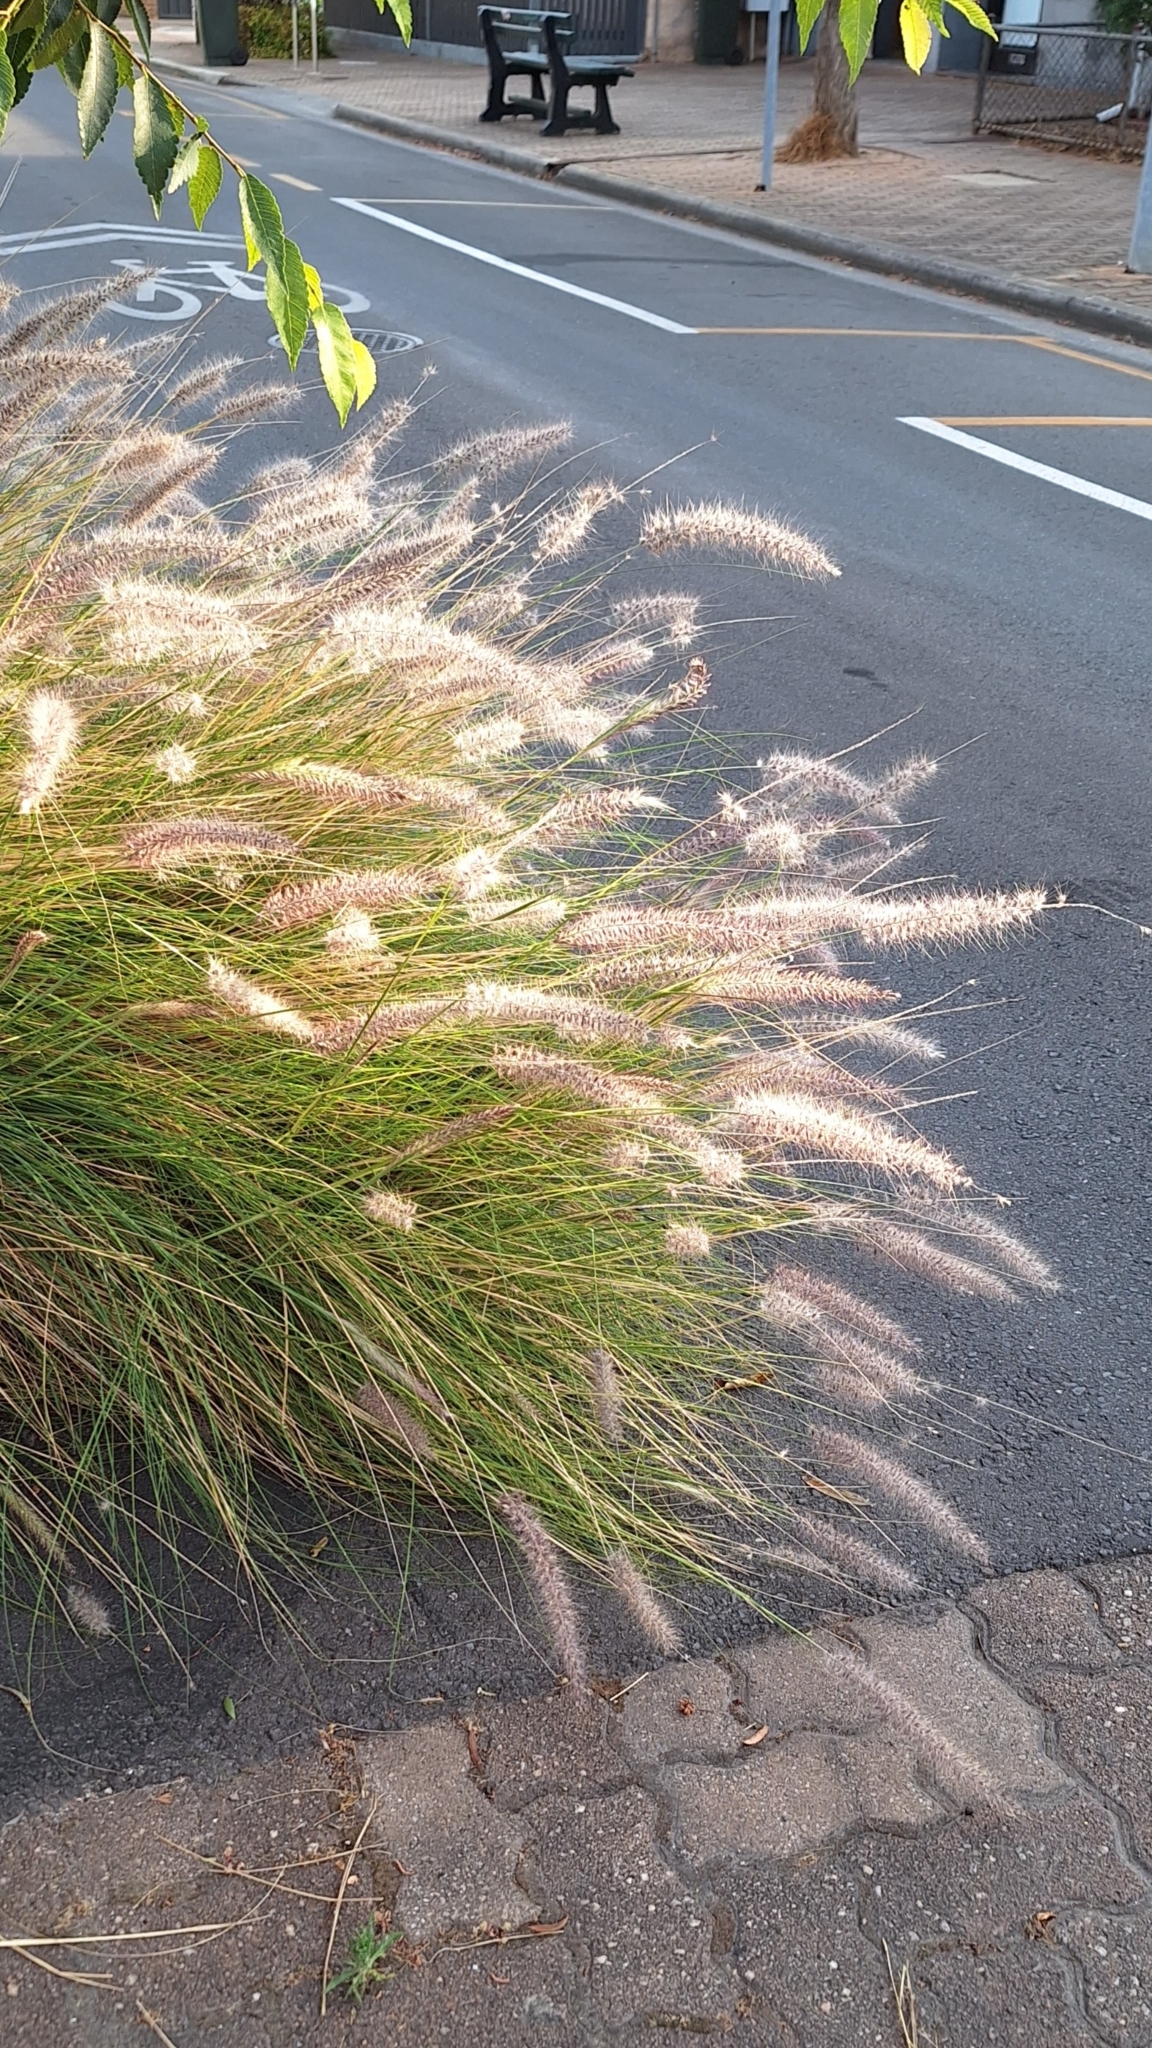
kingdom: Plantae
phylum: Tracheophyta
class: Liliopsida
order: Poales
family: Poaceae
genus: Cenchrus
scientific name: Cenchrus setaceus
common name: Crimson fountaingrass
